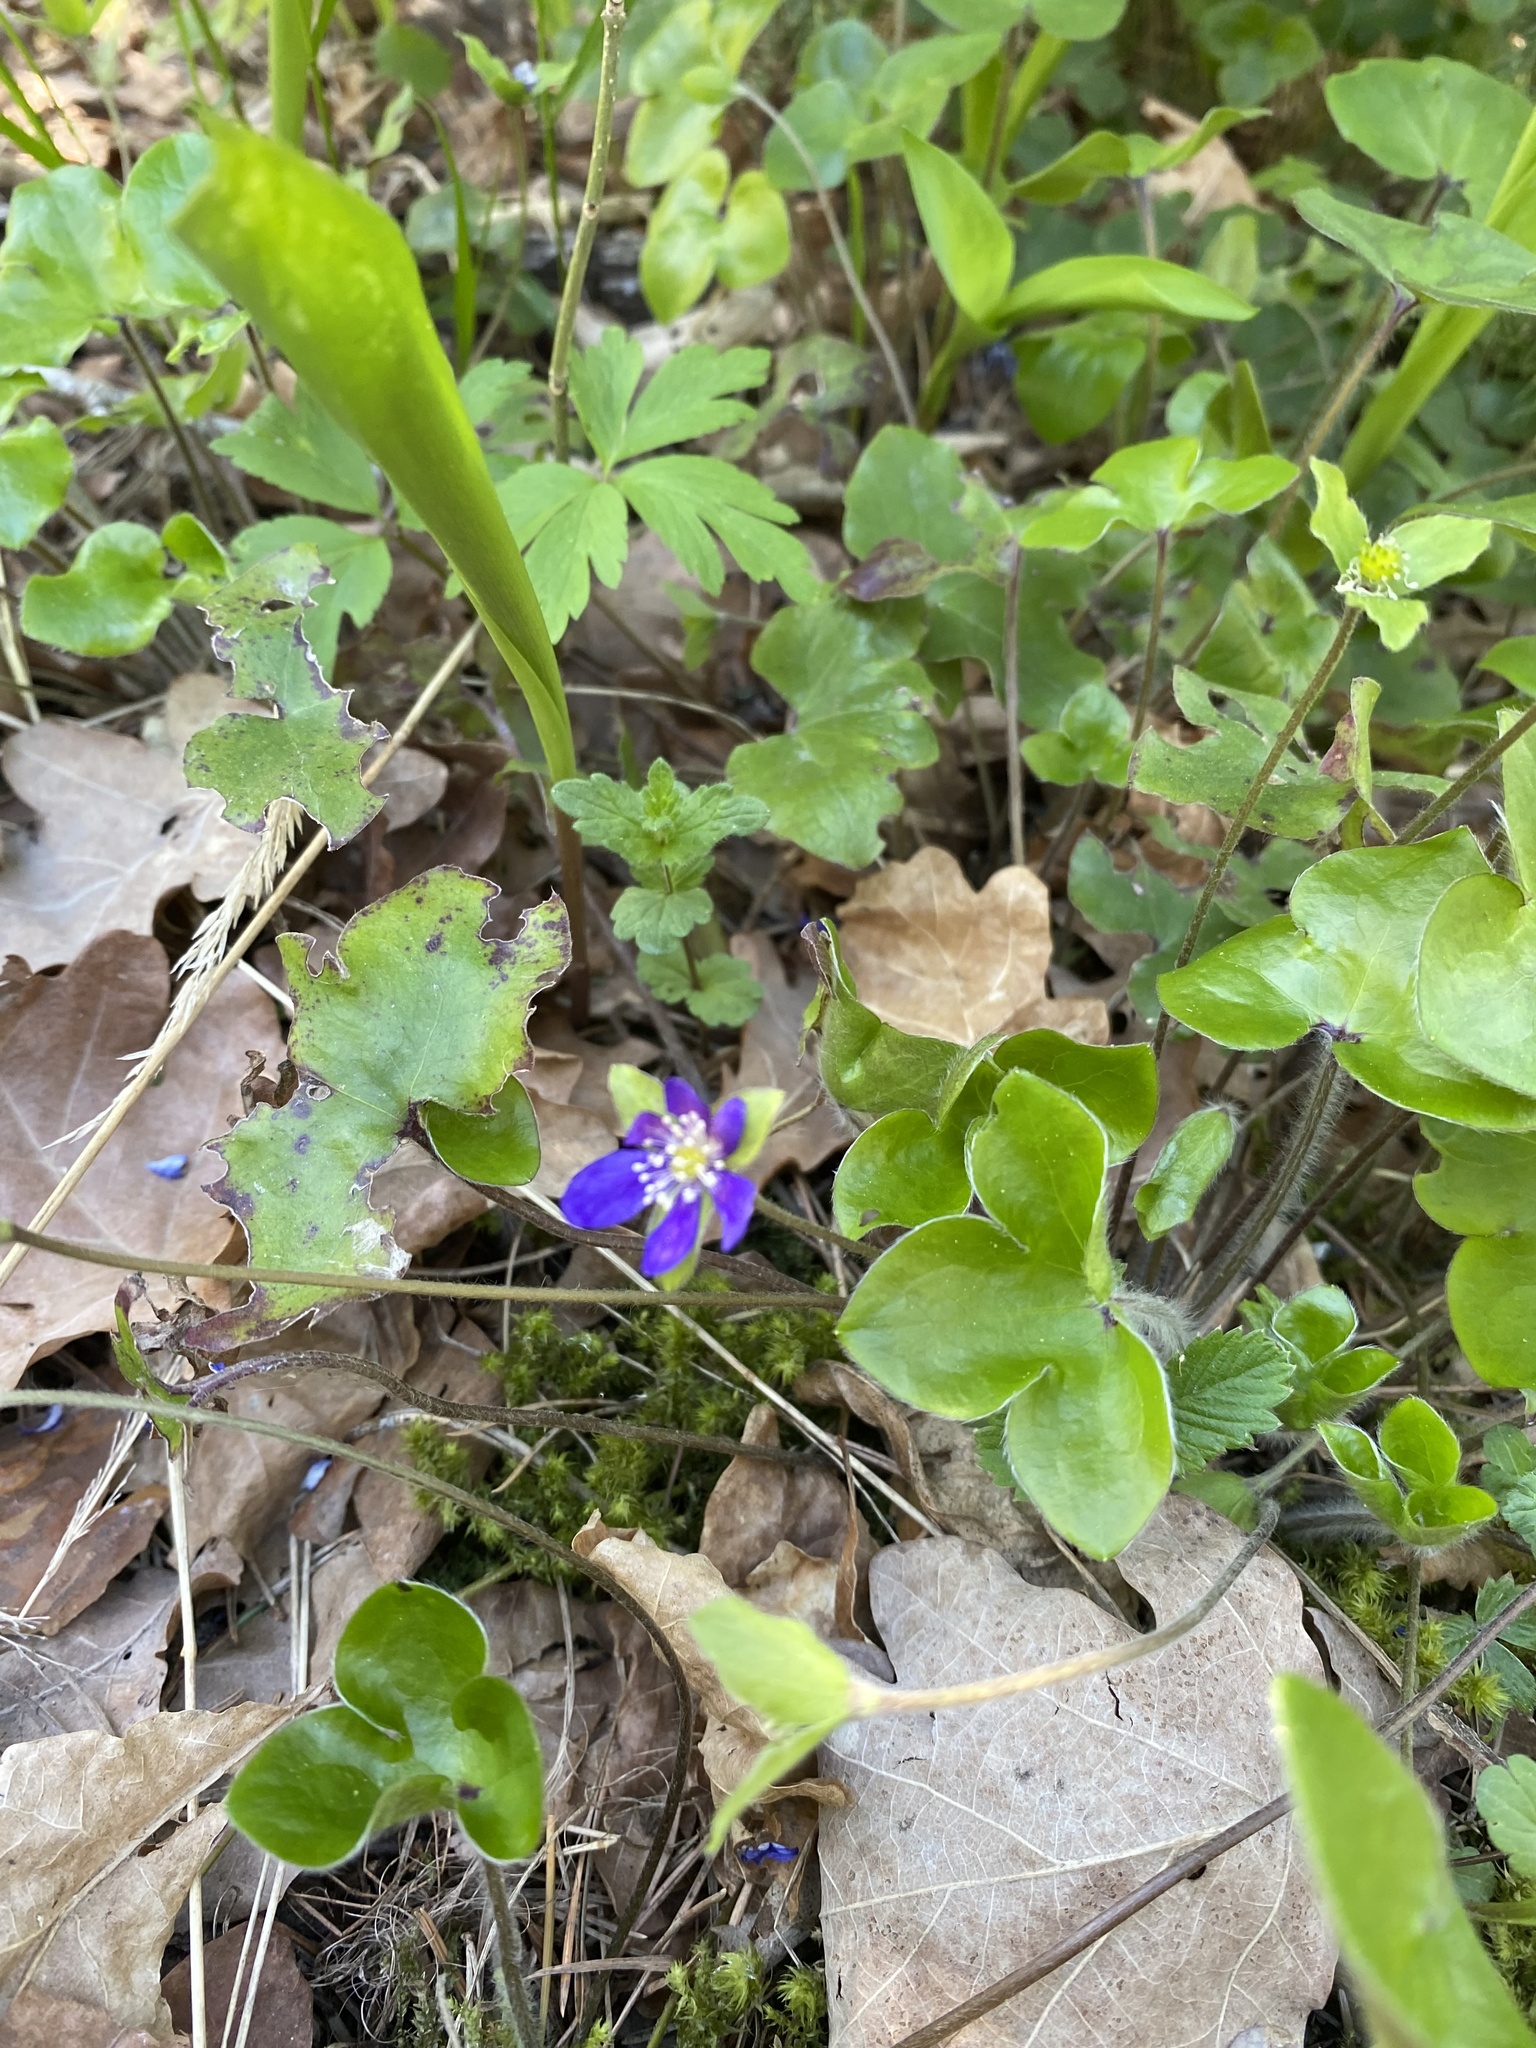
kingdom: Plantae
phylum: Tracheophyta
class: Magnoliopsida
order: Ranunculales
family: Ranunculaceae
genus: Hepatica
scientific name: Hepatica nobilis
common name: Liverleaf
